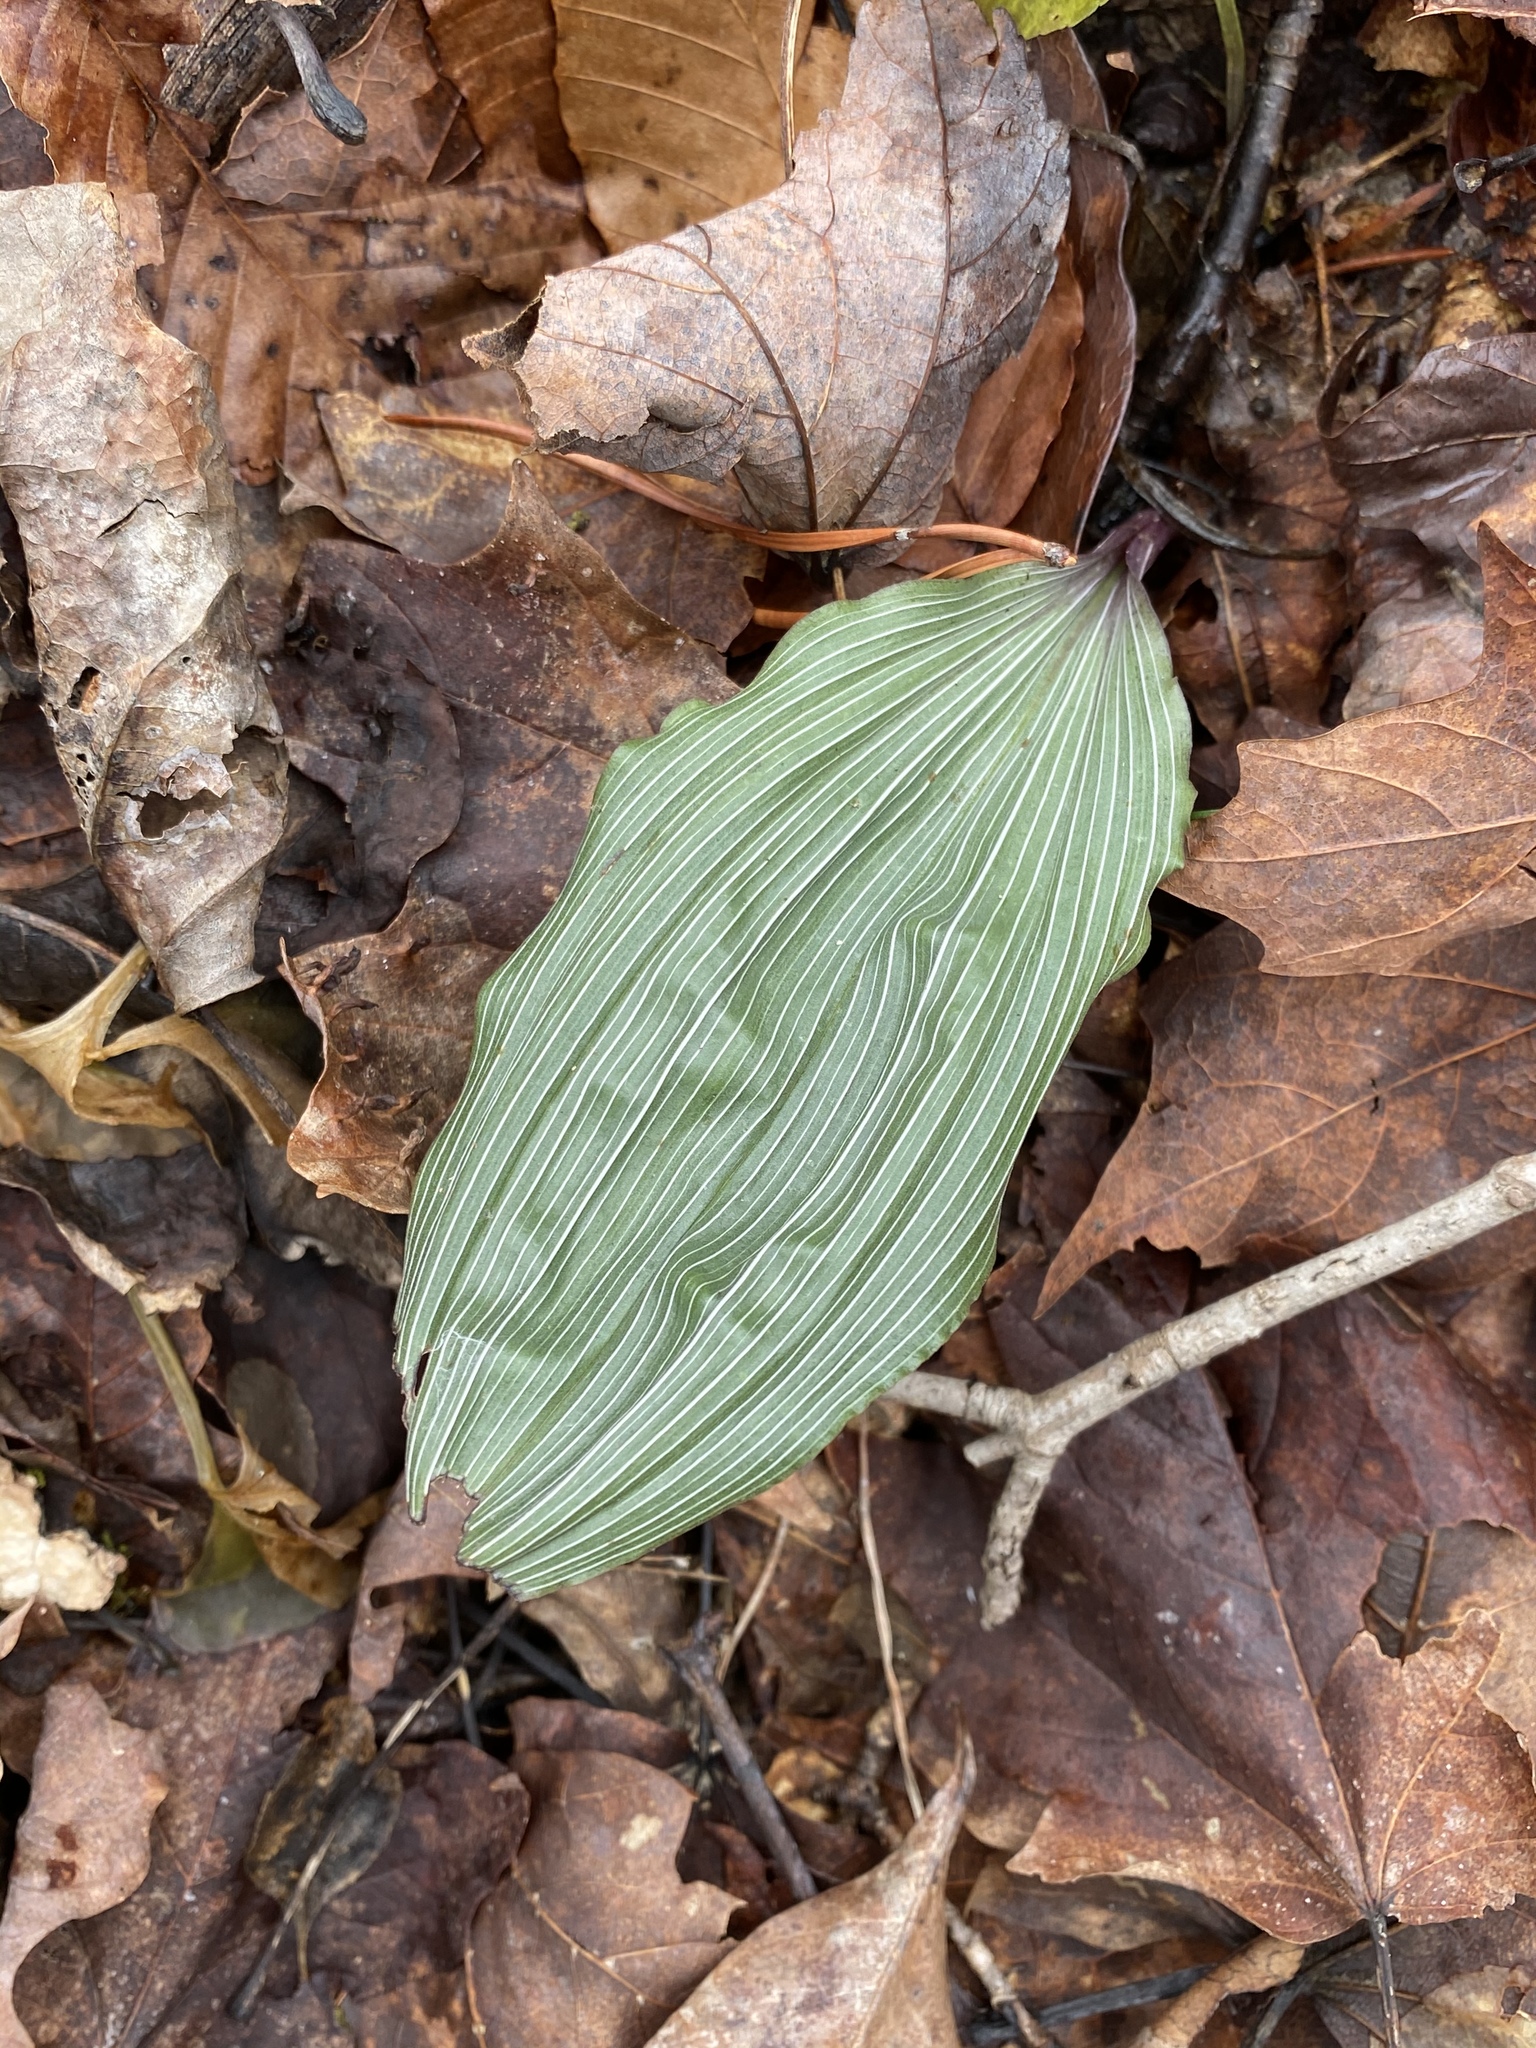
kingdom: Plantae
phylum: Tracheophyta
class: Liliopsida
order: Asparagales
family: Orchidaceae
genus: Aplectrum
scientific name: Aplectrum hyemale
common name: Adam-and-eve
